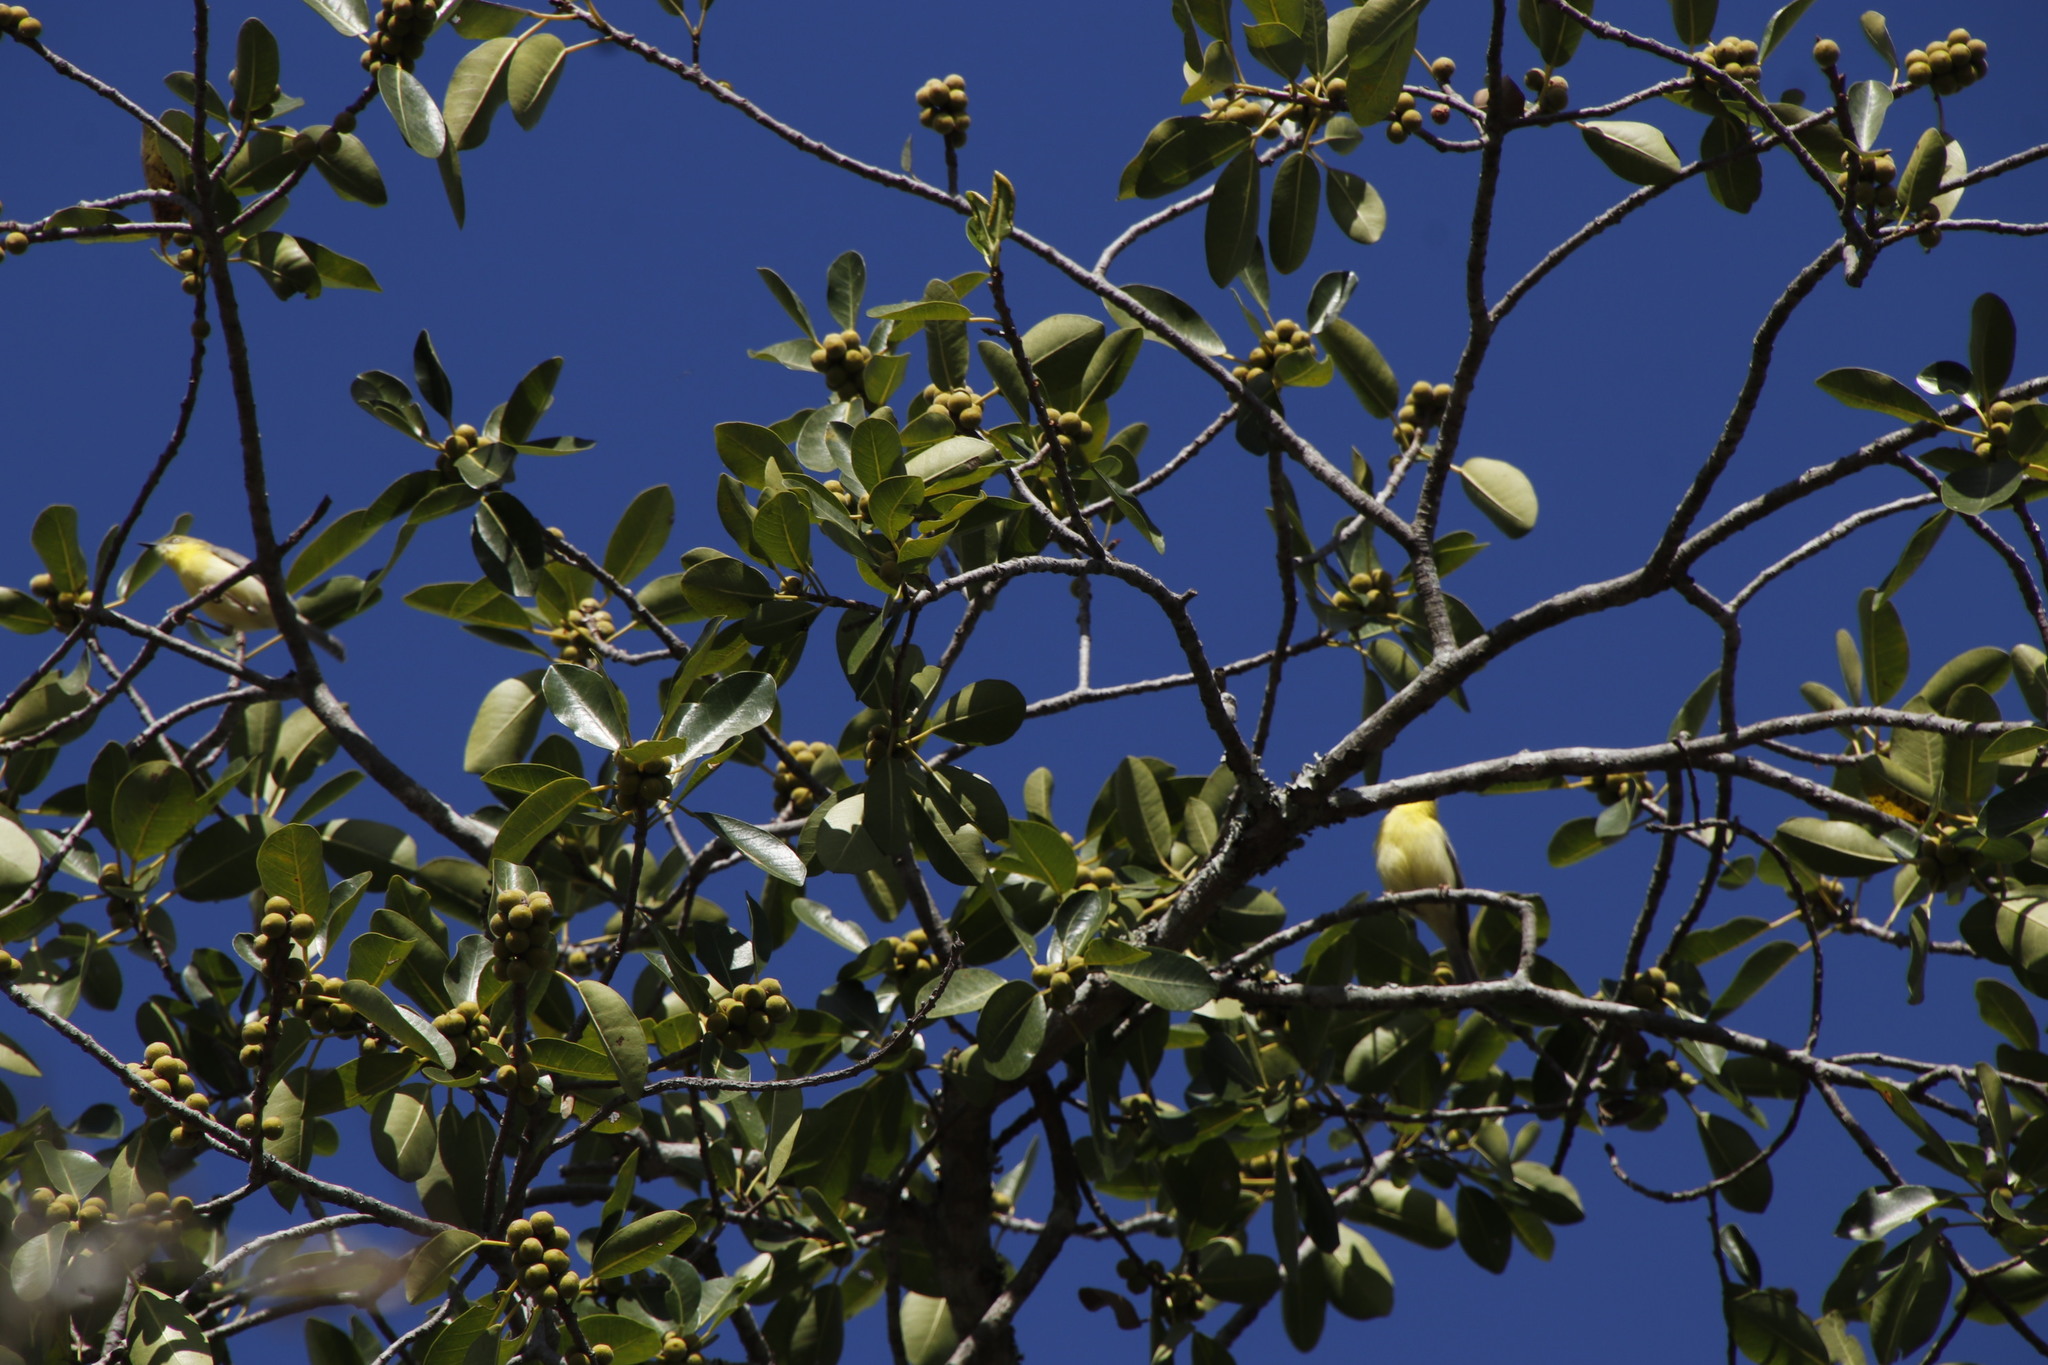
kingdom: Animalia
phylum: Chordata
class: Aves
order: Passeriformes
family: Cisticolidae
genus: Eremomela
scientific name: Eremomela scotops
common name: Green-capped eremomela
